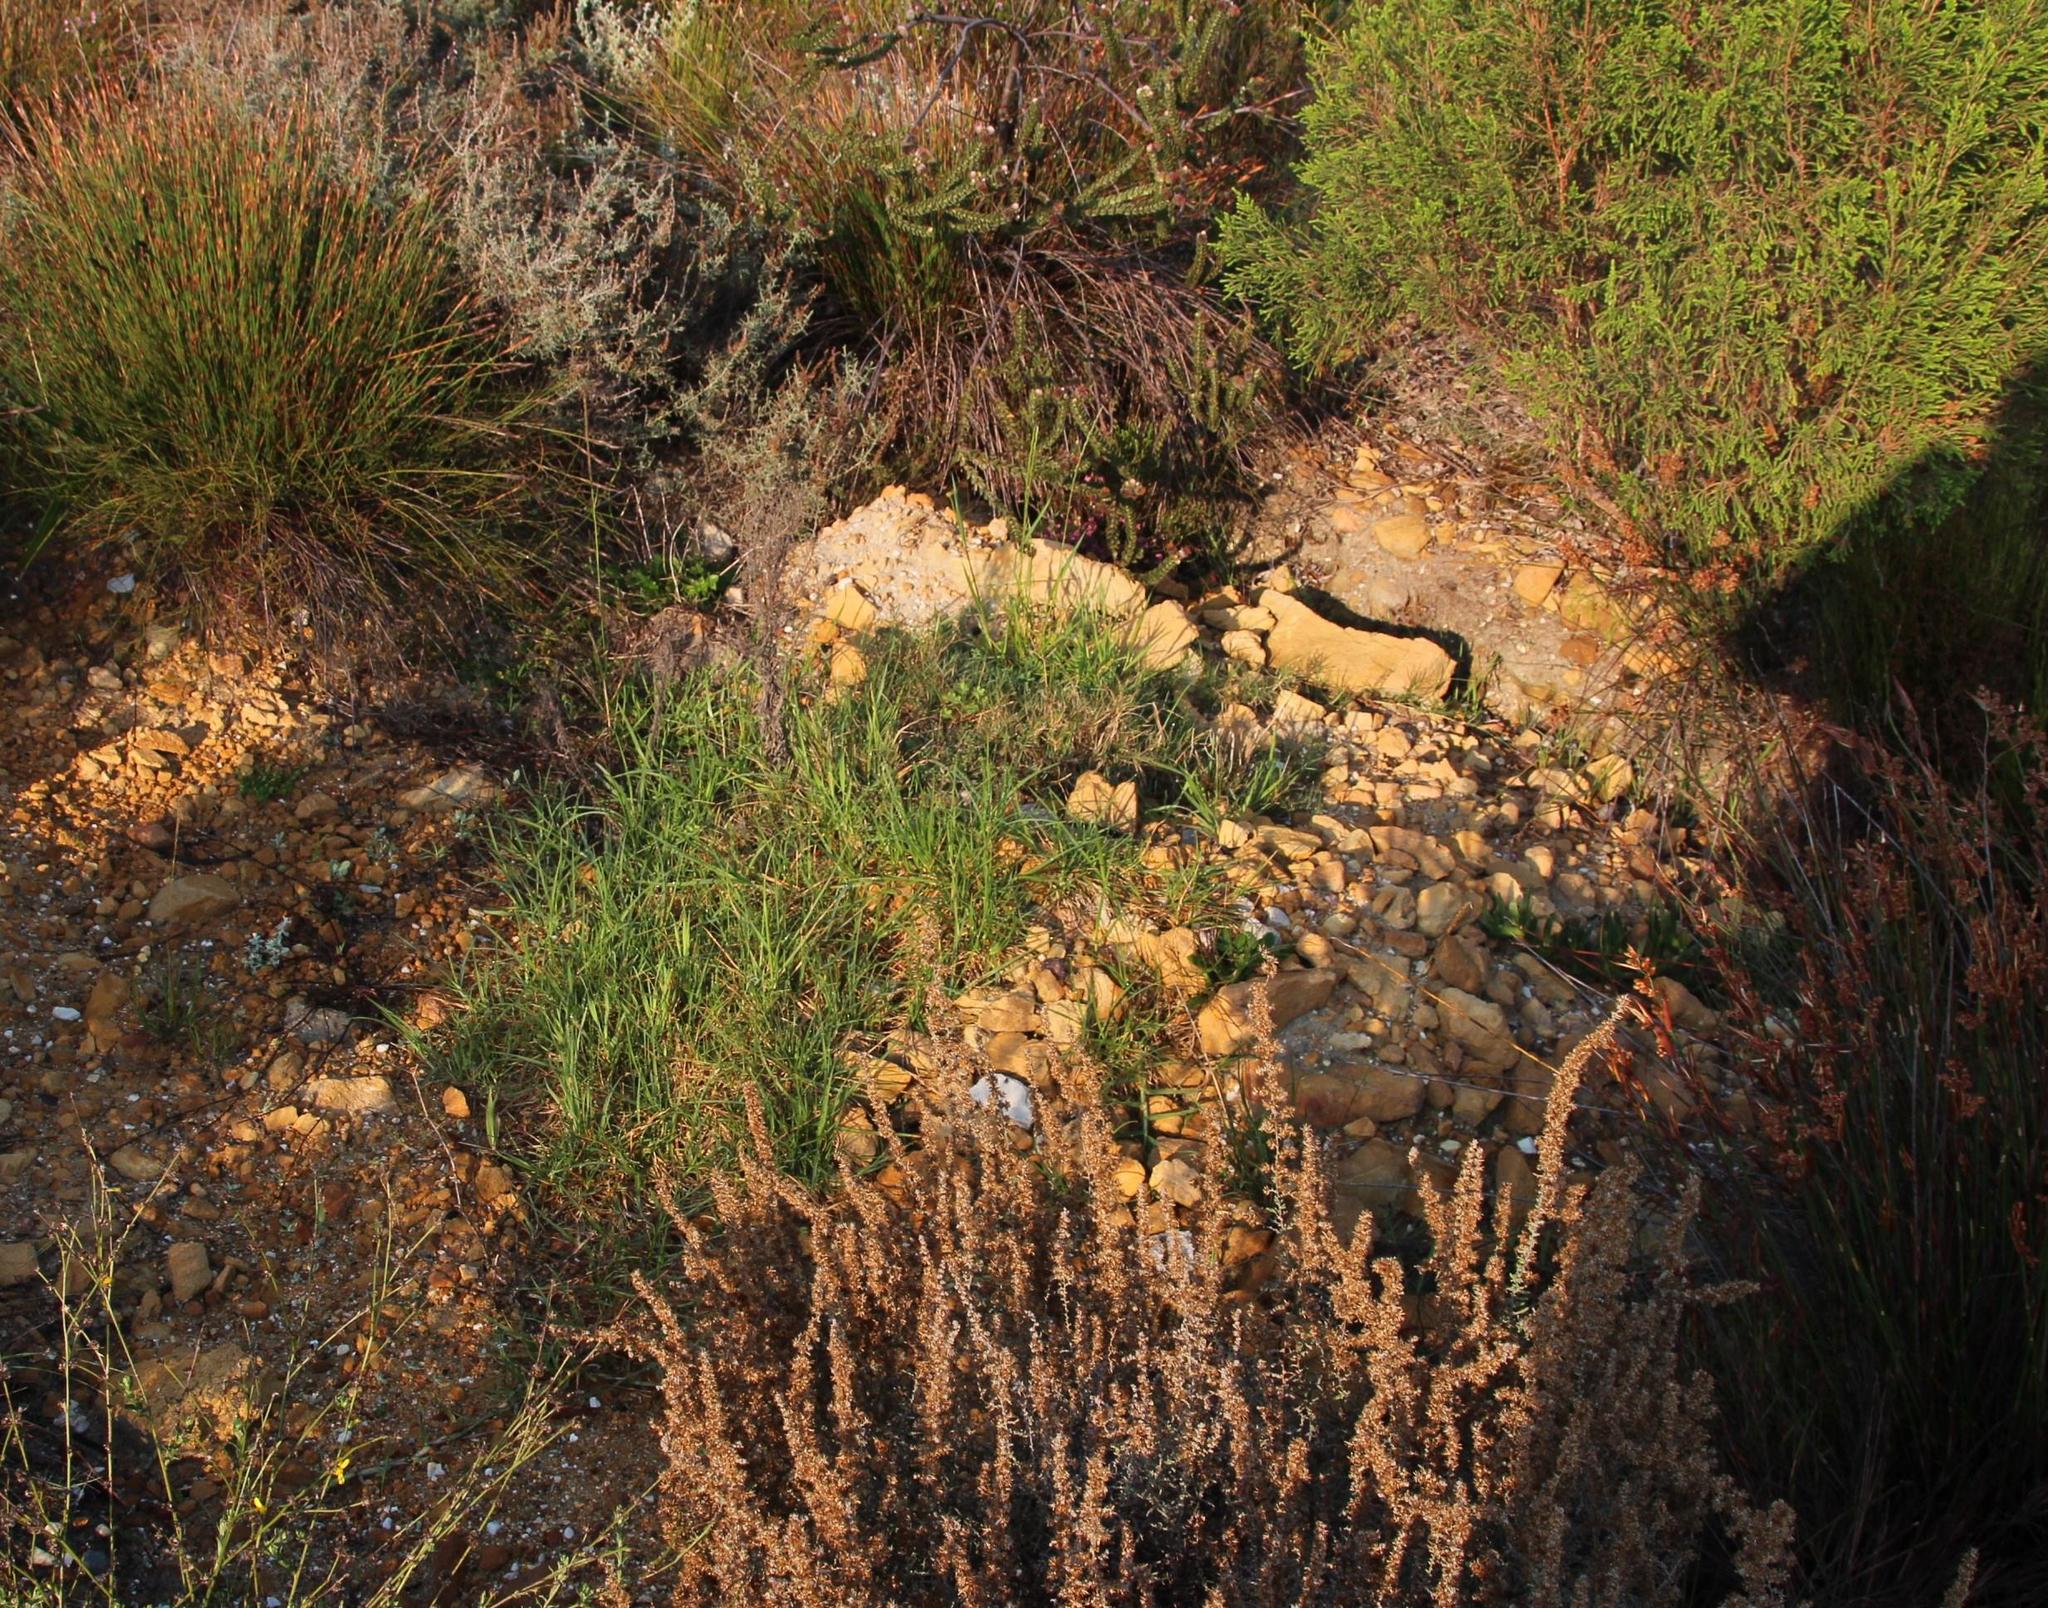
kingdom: Plantae
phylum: Tracheophyta
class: Liliopsida
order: Poales
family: Poaceae
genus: Cenchrus
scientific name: Cenchrus clandestinus
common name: Kikuyugrass
